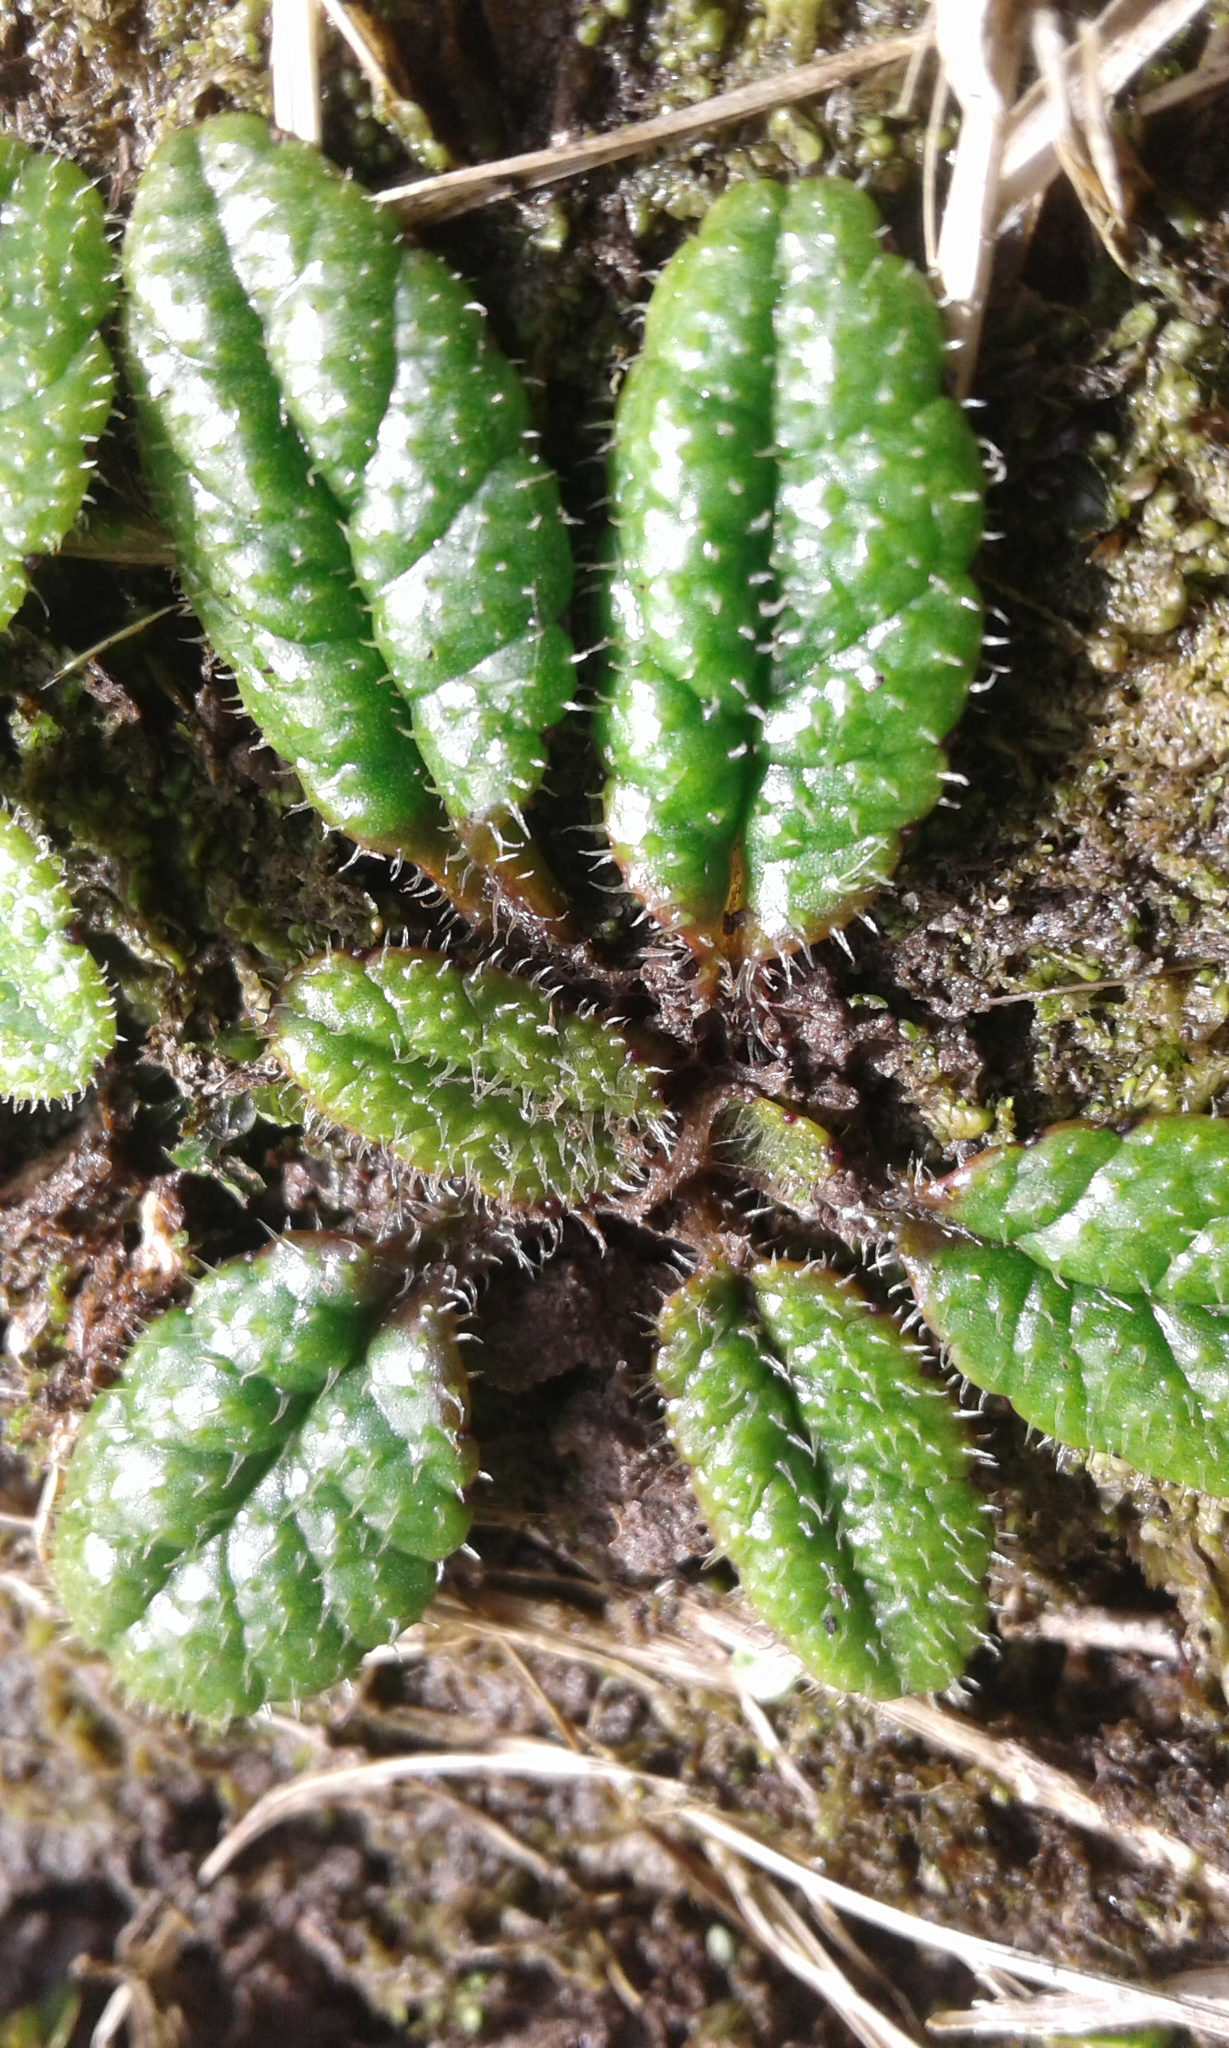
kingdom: Plantae
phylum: Tracheophyta
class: Magnoliopsida
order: Asterales
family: Asteraceae
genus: Brachyglottis
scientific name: Brachyglottis
